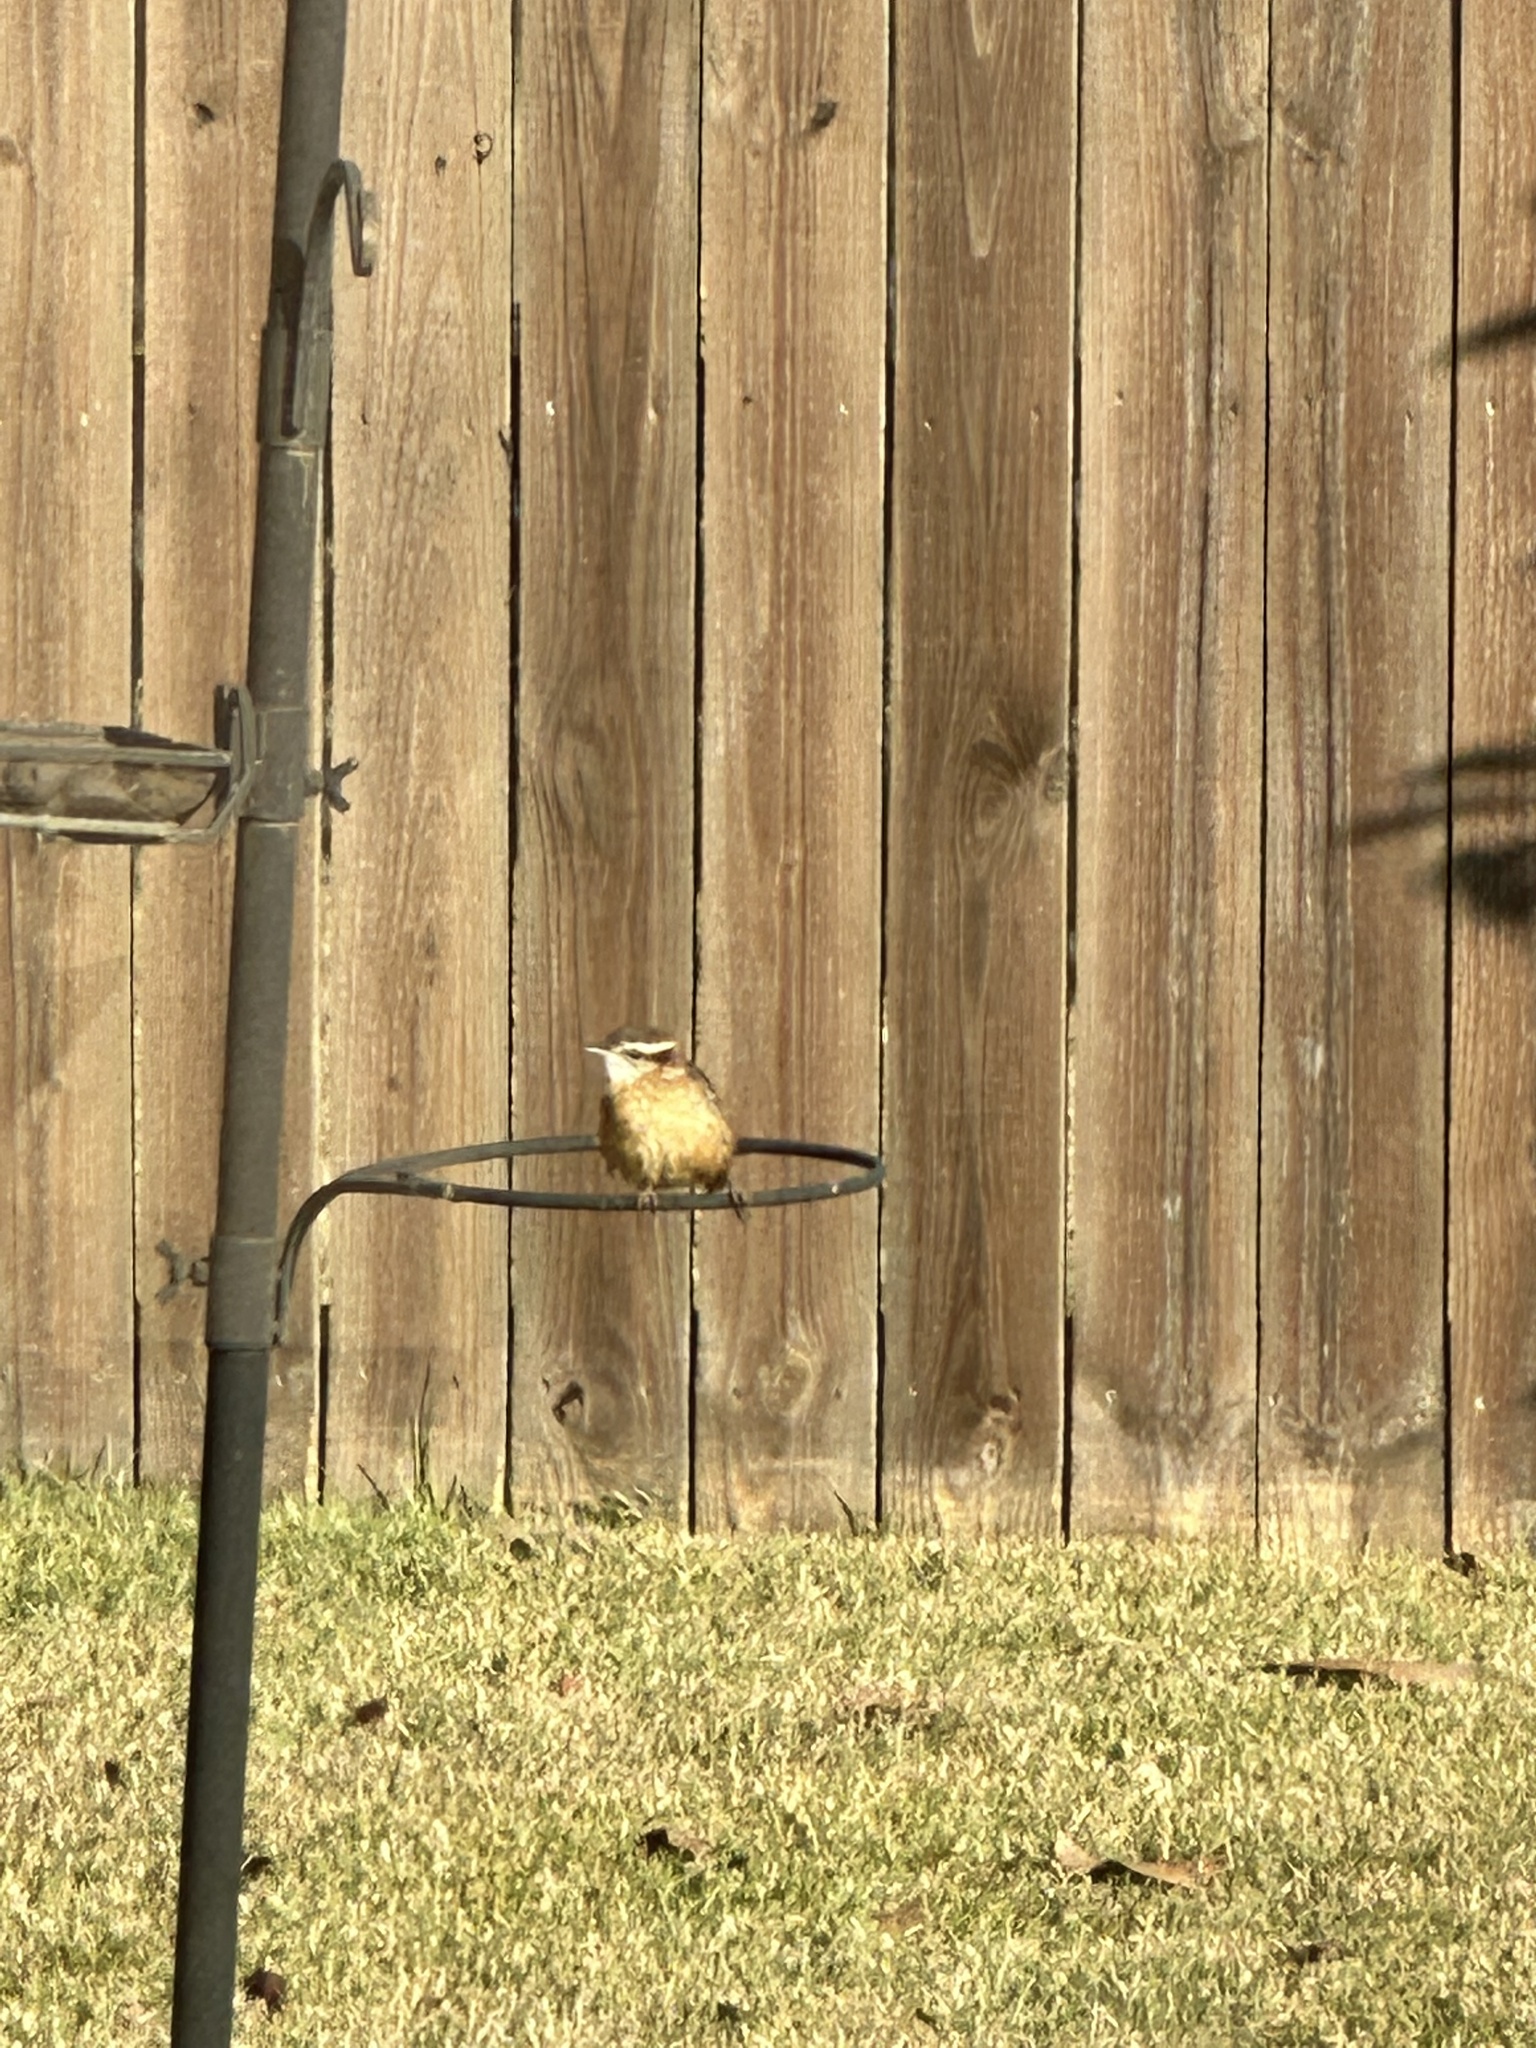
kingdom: Animalia
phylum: Chordata
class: Aves
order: Passeriformes
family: Troglodytidae
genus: Thryothorus
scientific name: Thryothorus ludovicianus
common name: Carolina wren
